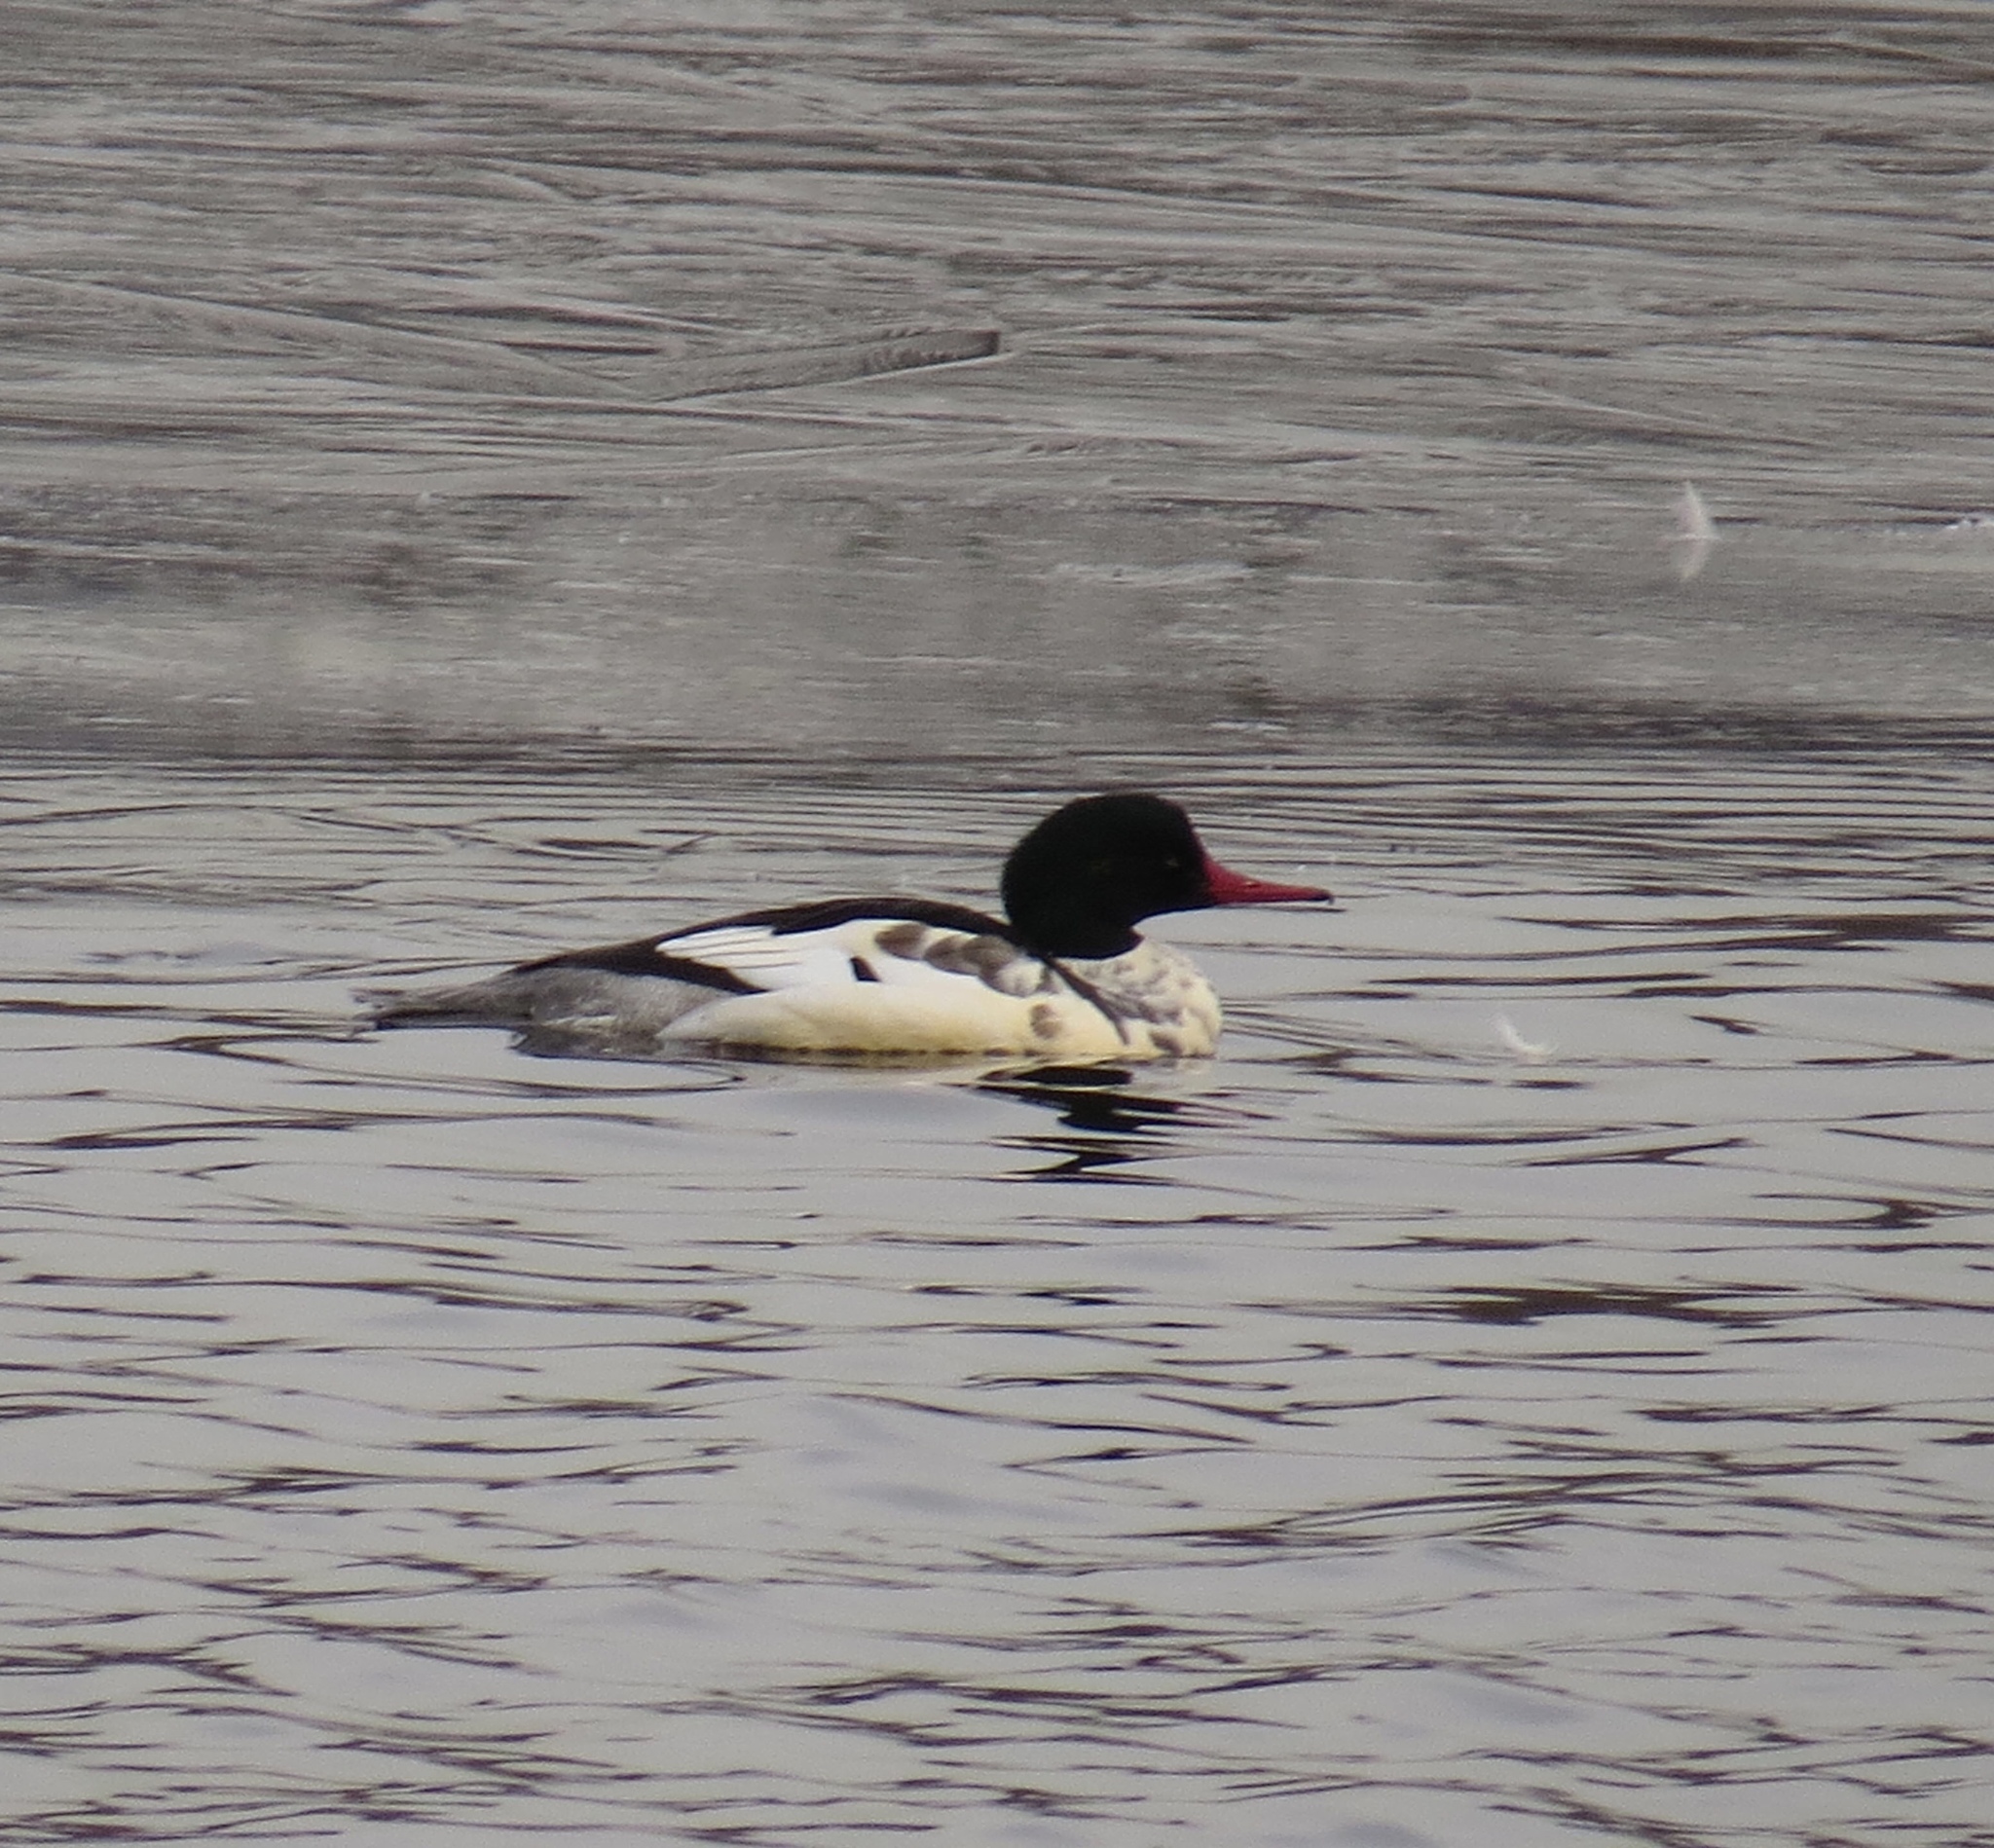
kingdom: Animalia
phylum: Chordata
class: Aves
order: Anseriformes
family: Anatidae
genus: Mergus
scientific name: Mergus merganser
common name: Common merganser
